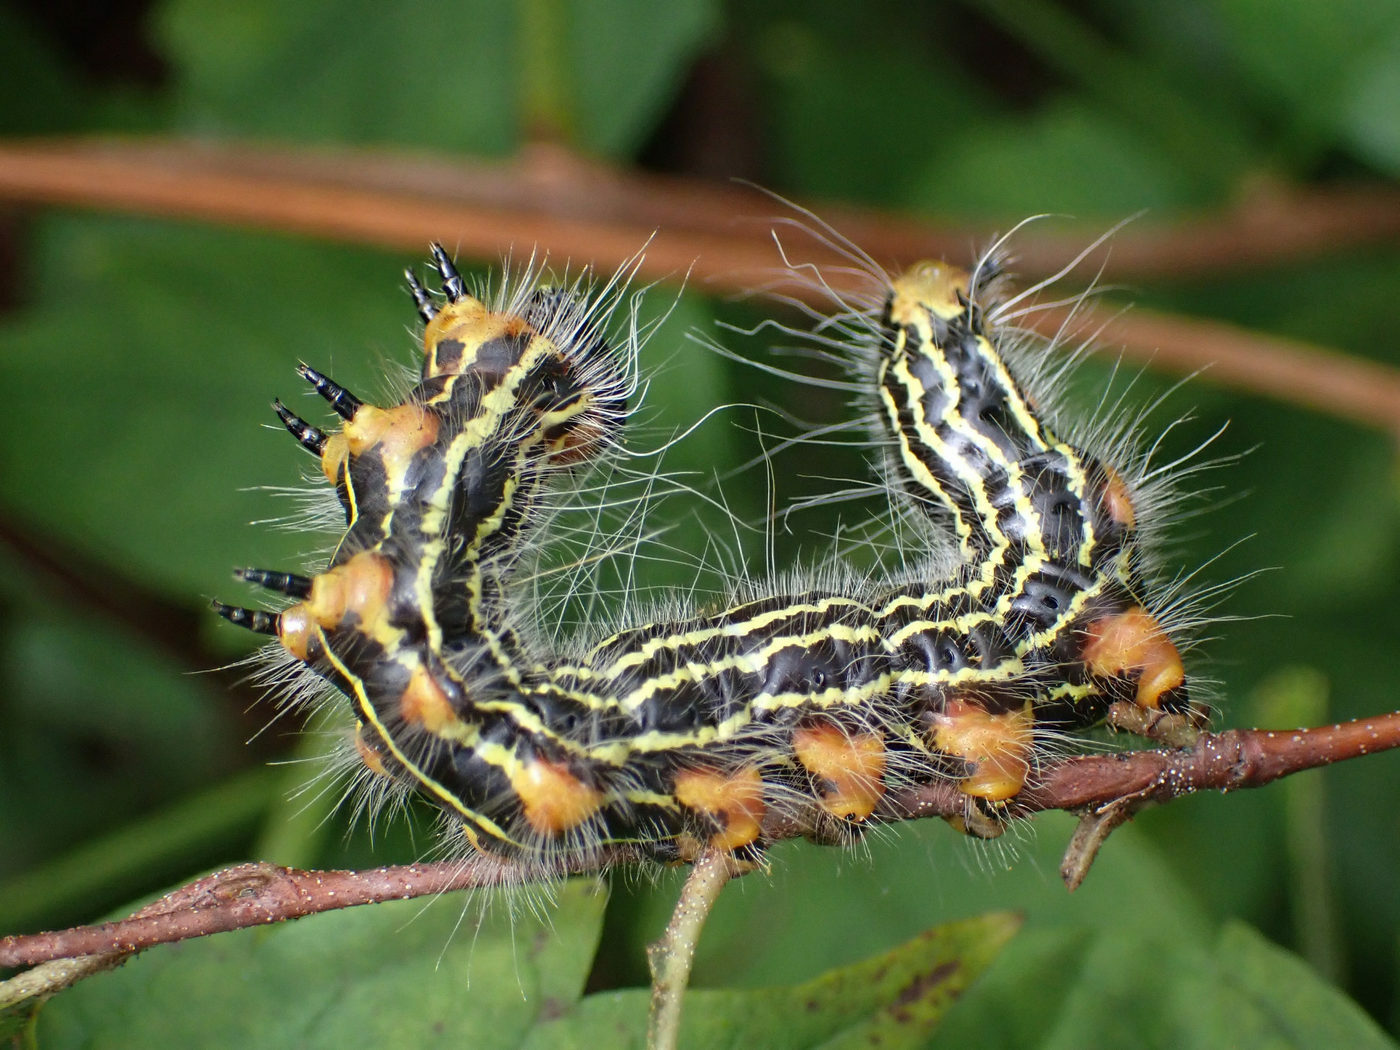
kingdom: Animalia
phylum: Arthropoda
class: Insecta
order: Lepidoptera
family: Notodontidae
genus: Datana
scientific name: Datana ministra
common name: Yellow-necked caterpillar moth
